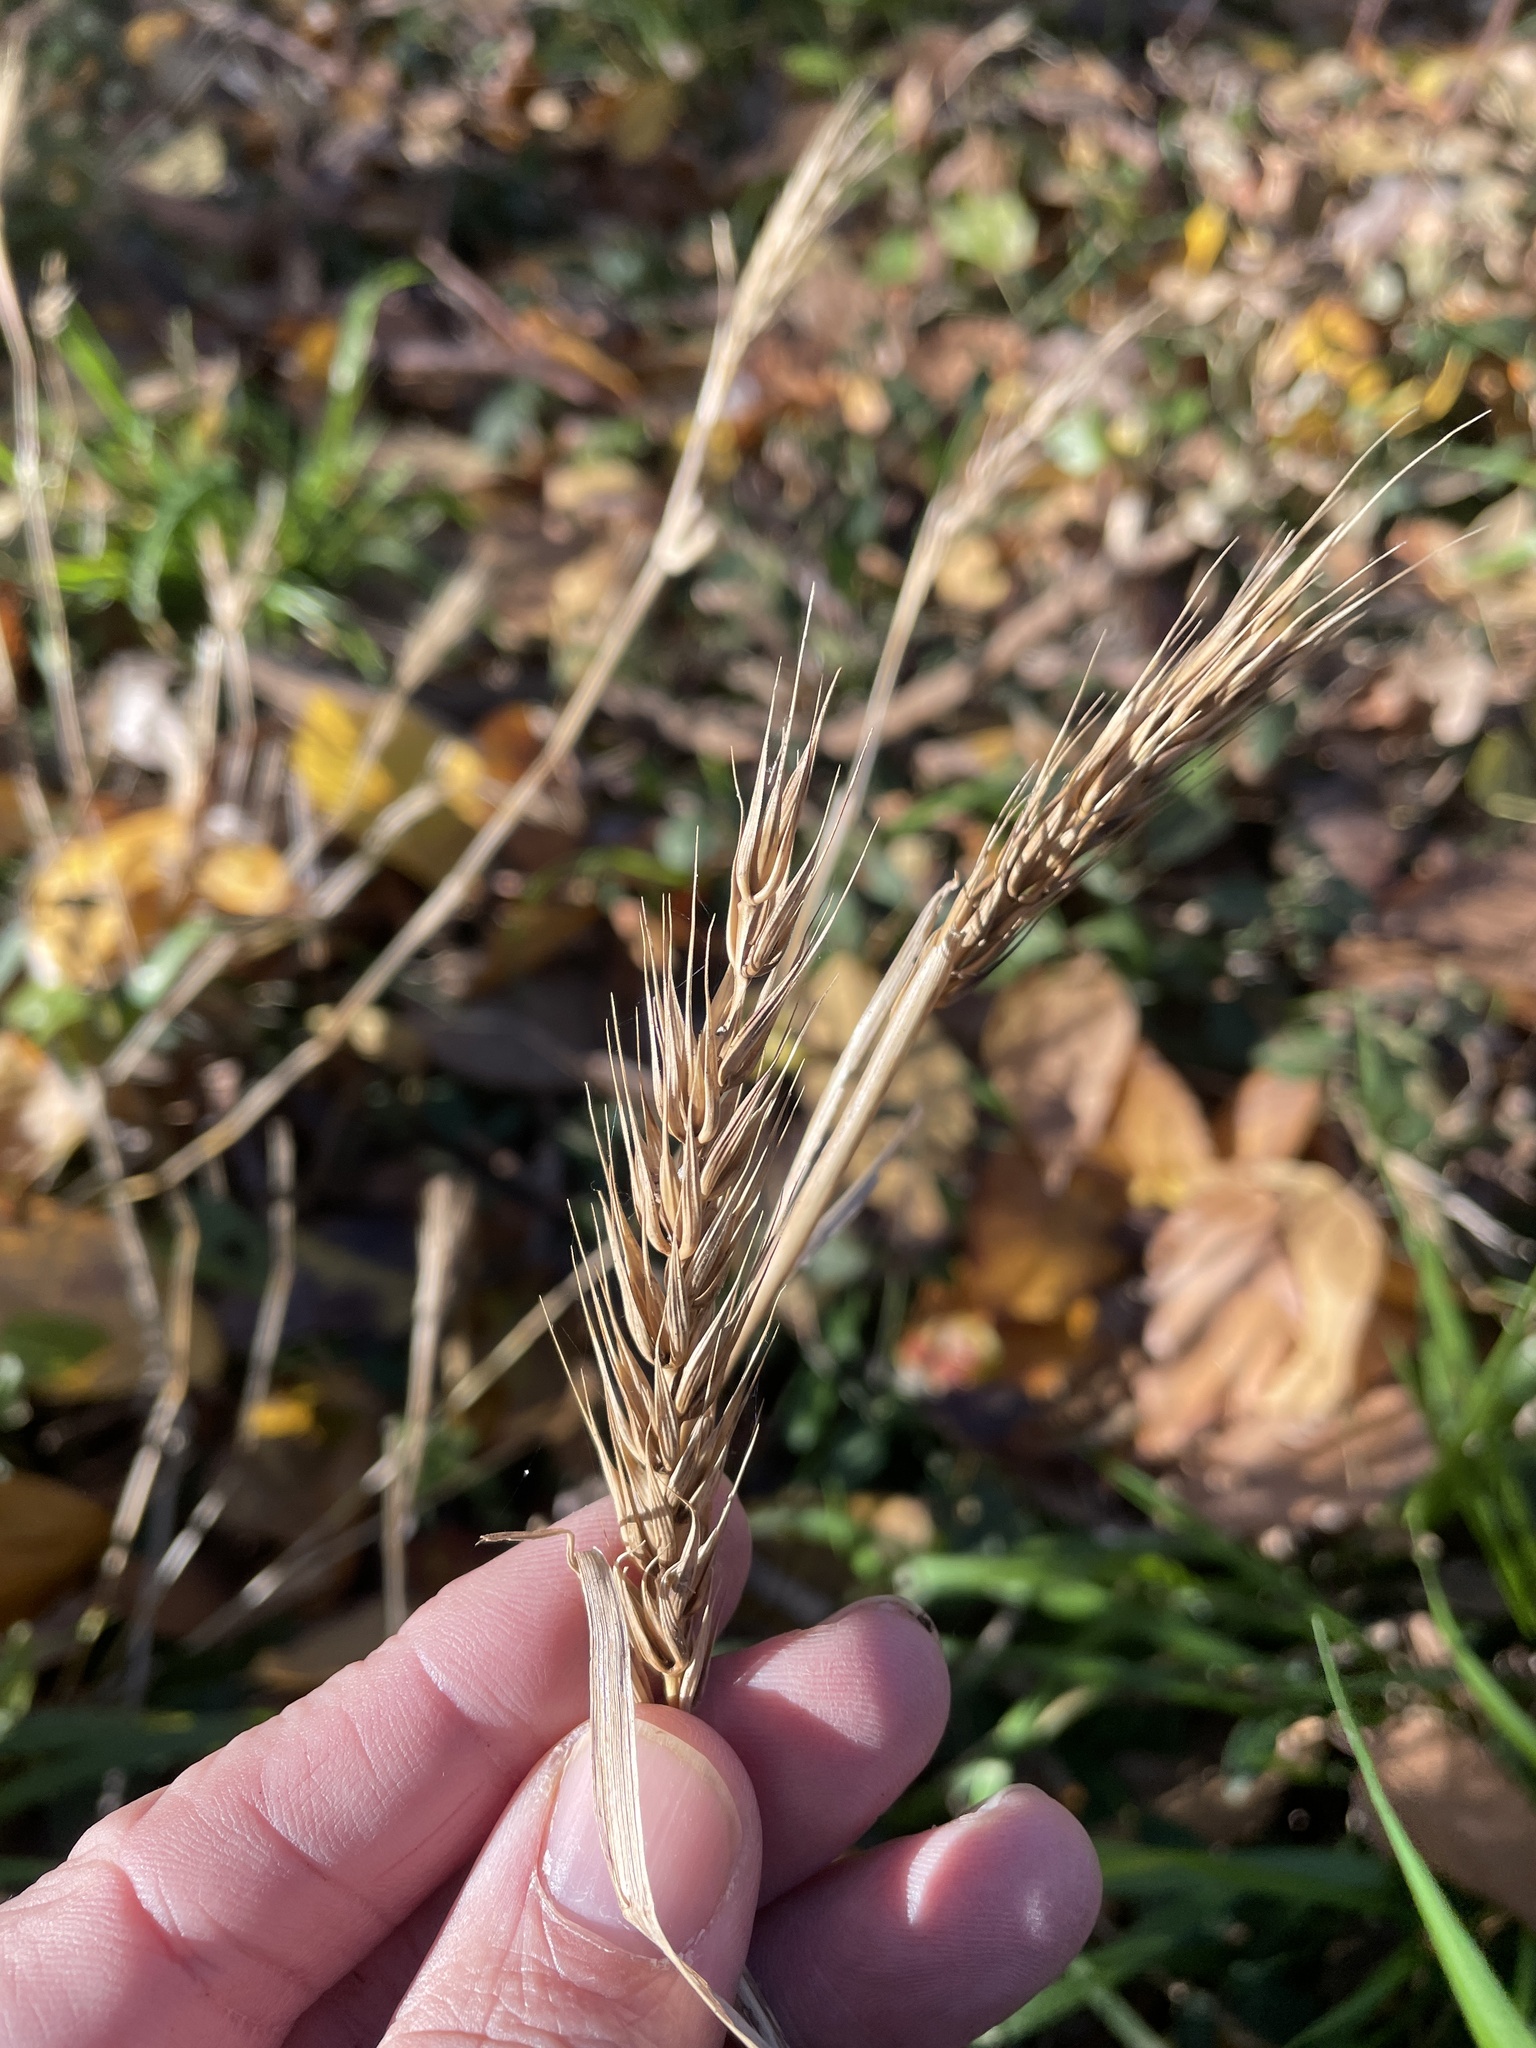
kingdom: Plantae
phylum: Tracheophyta
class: Liliopsida
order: Poales
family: Poaceae
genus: Elymus
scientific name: Elymus virginicus
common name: Common eastern wildrye
